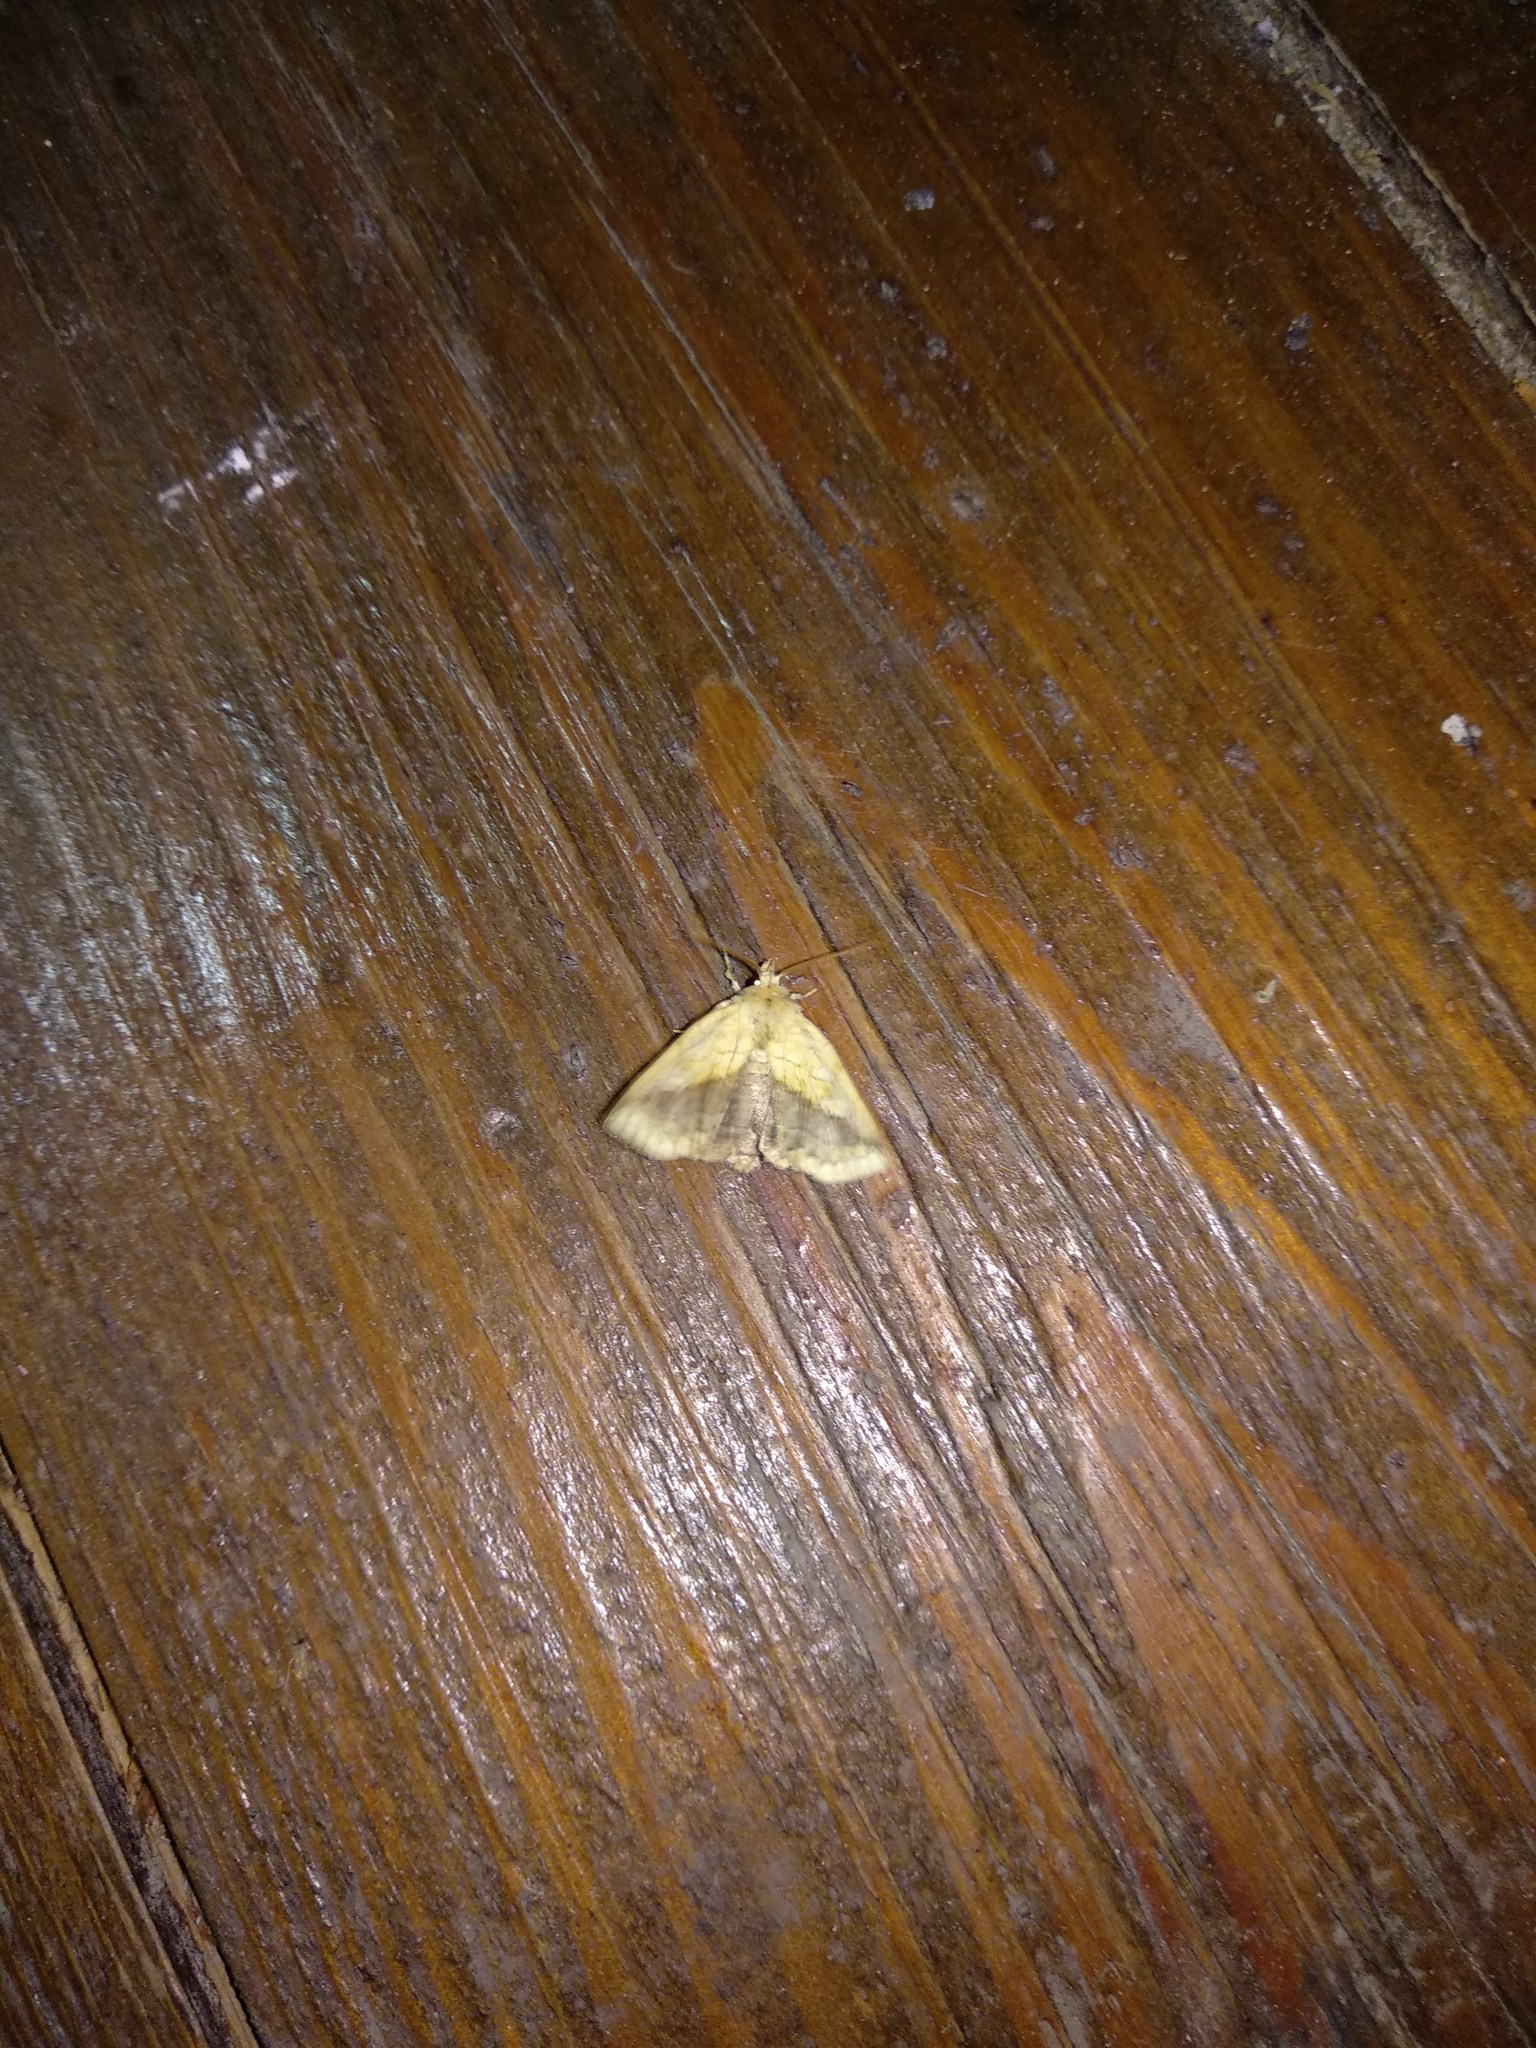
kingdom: Animalia
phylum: Arthropoda
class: Insecta
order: Lepidoptera
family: Noctuidae
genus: Brachyxanthia
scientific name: Brachyxanthia zelotypa
